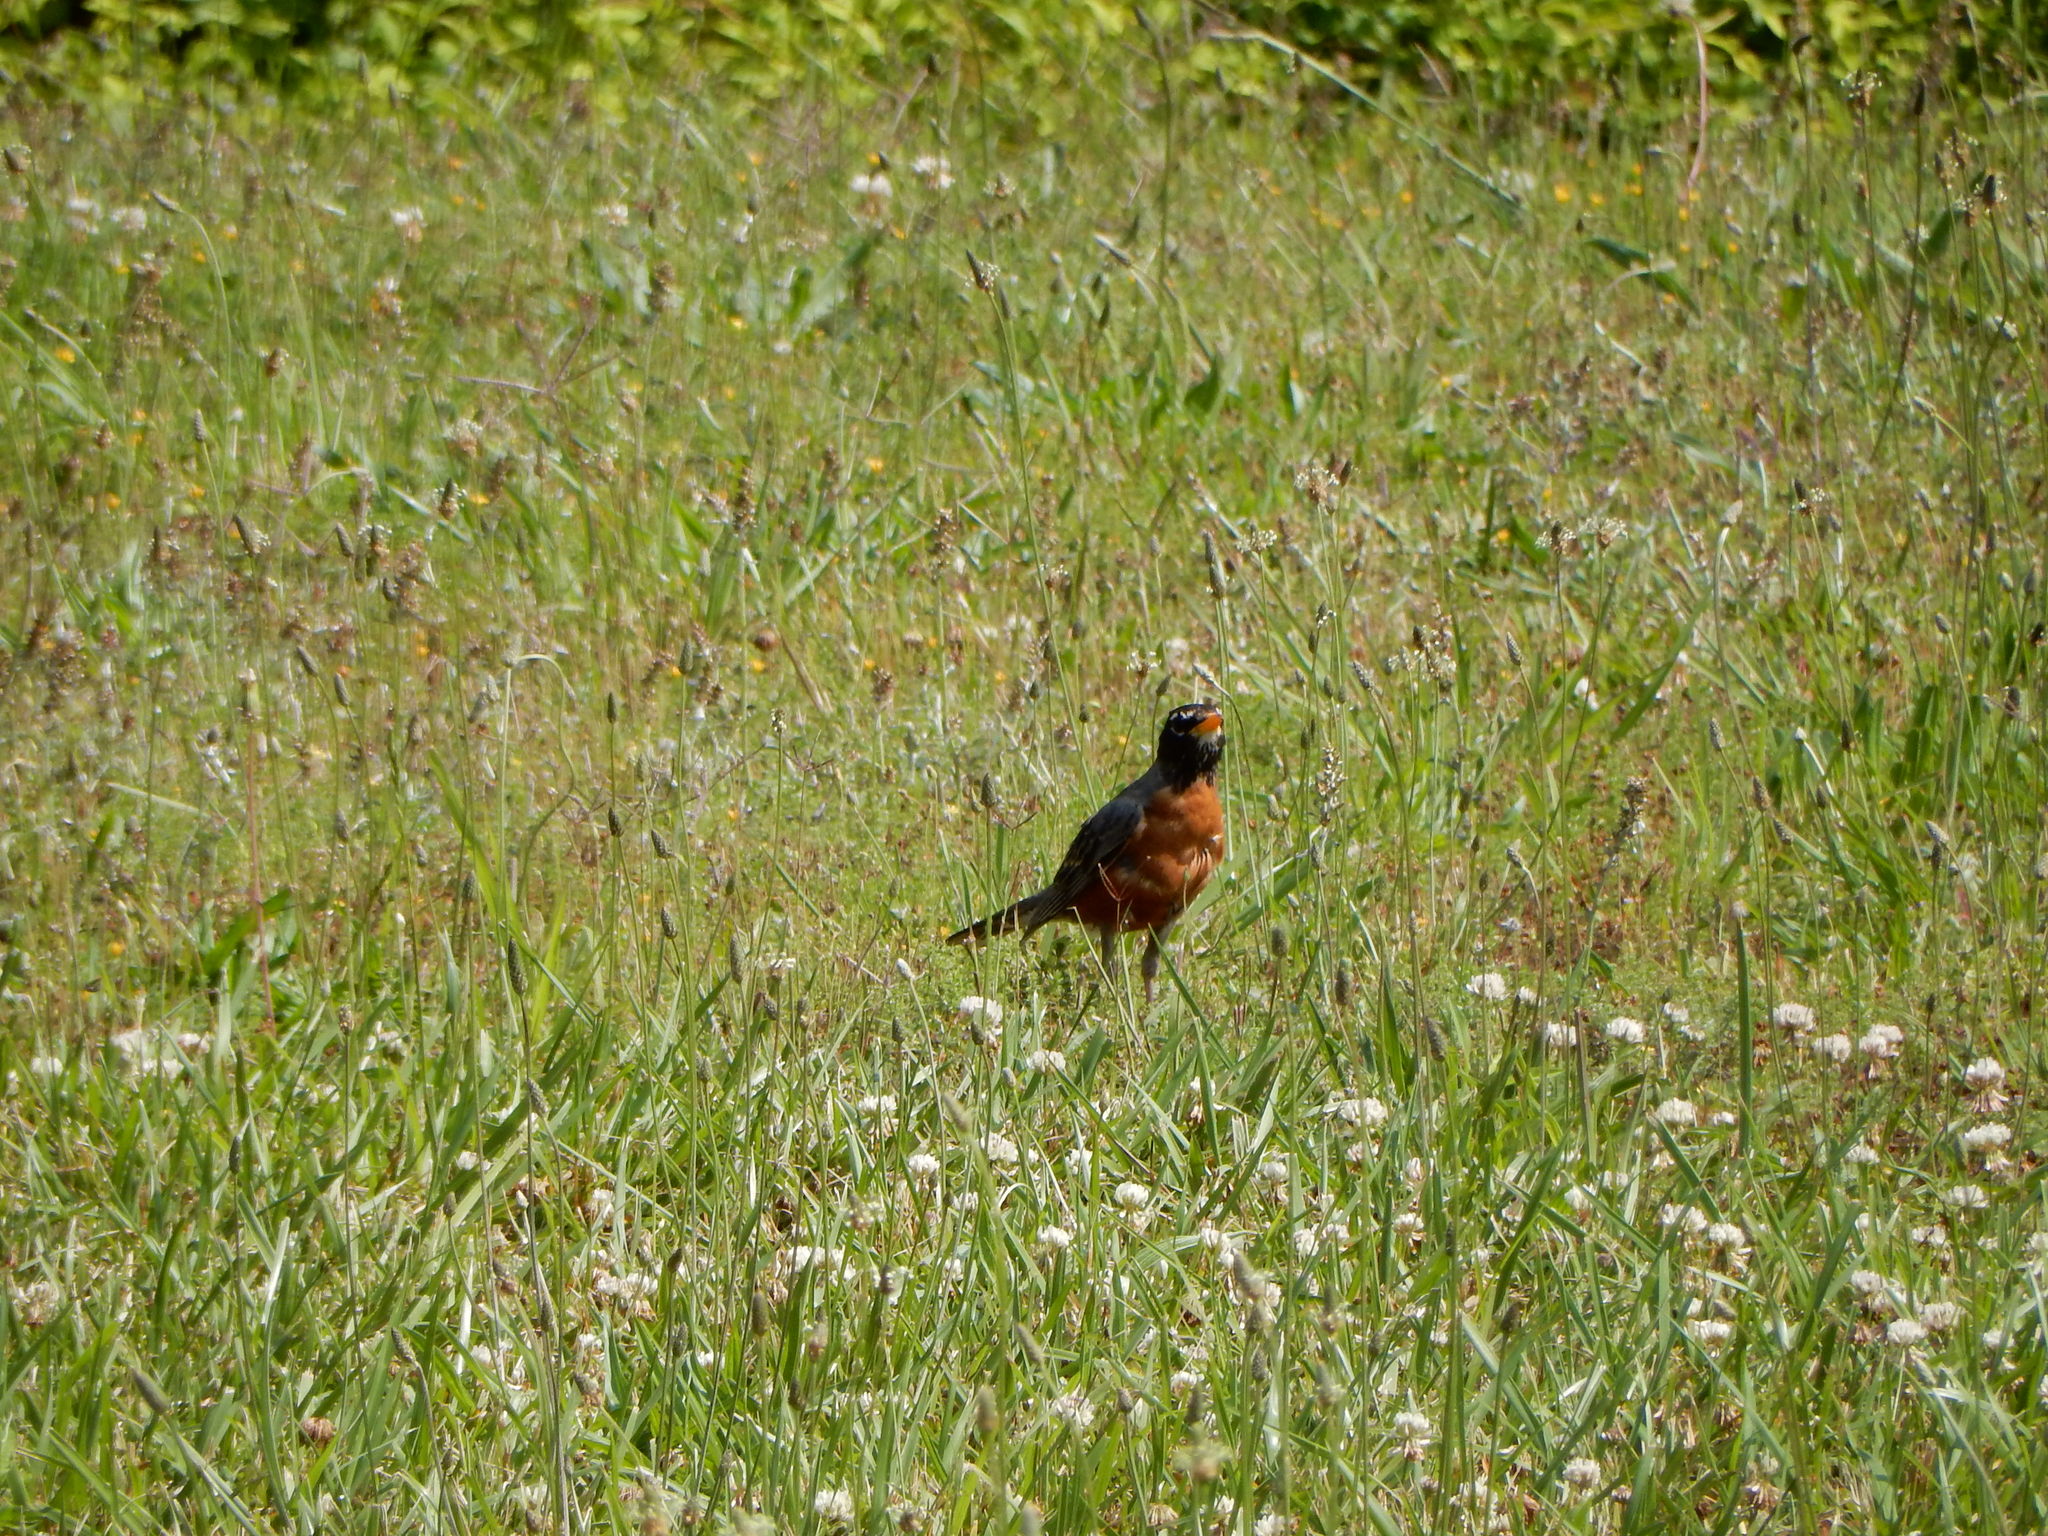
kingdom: Animalia
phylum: Chordata
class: Aves
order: Passeriformes
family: Turdidae
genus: Turdus
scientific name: Turdus migratorius
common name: American robin
